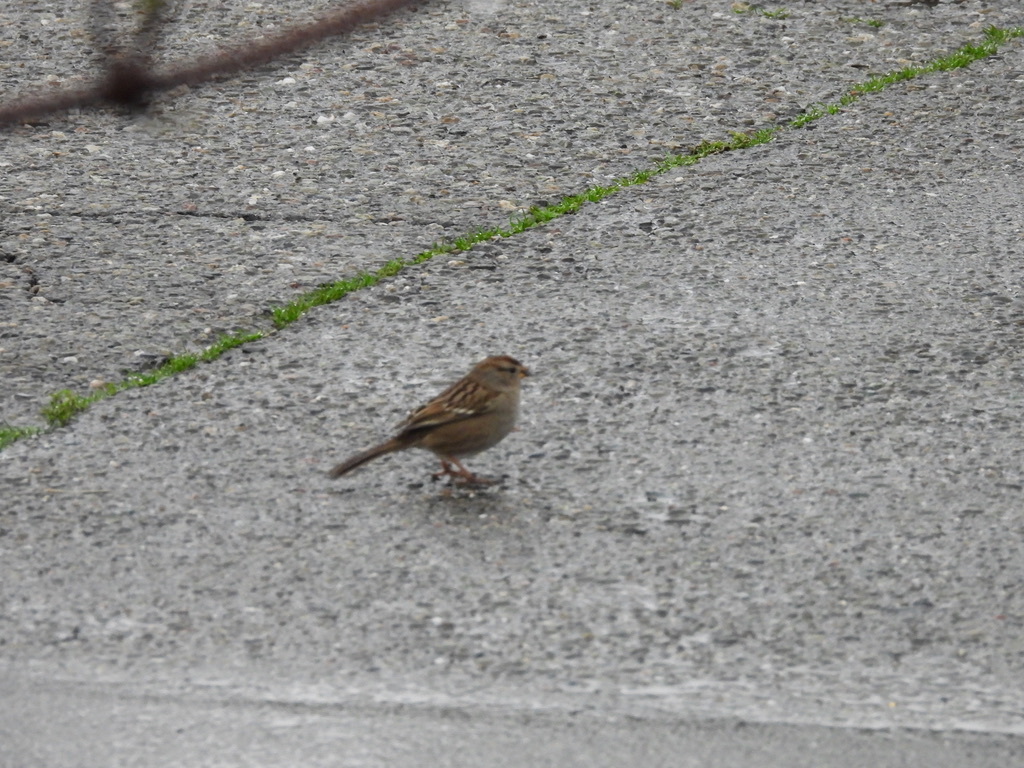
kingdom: Animalia
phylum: Chordata
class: Aves
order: Passeriformes
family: Passerellidae
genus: Zonotrichia
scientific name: Zonotrichia leucophrys
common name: White-crowned sparrow
